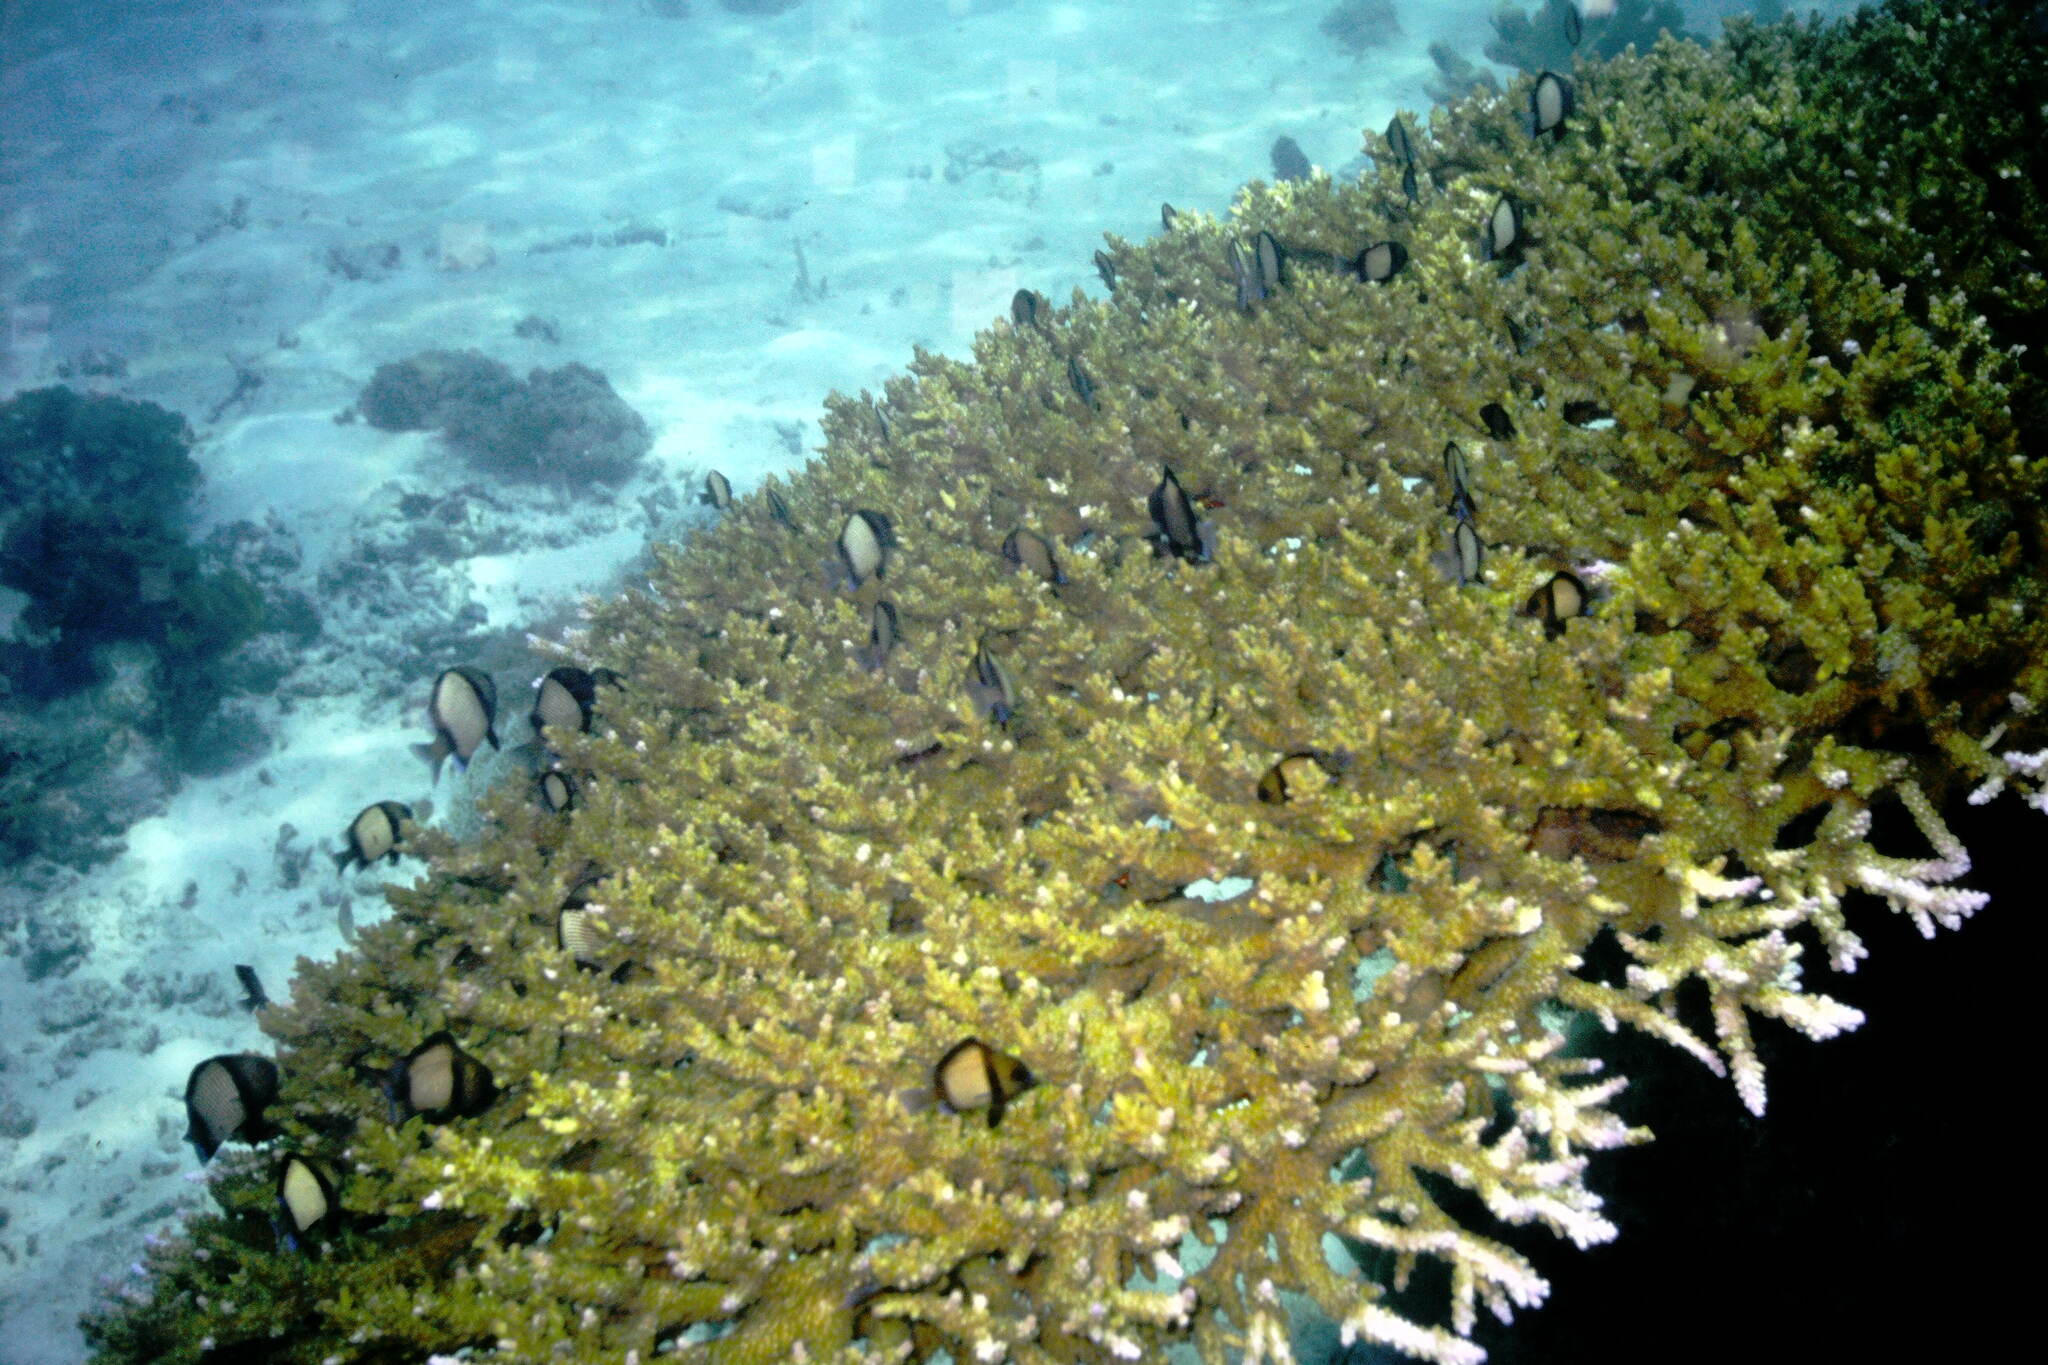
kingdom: Animalia
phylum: Chordata
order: Perciformes
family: Pomacentridae
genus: Dascyllus
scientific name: Dascyllus reticulatus
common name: Reticulated dascyllus
